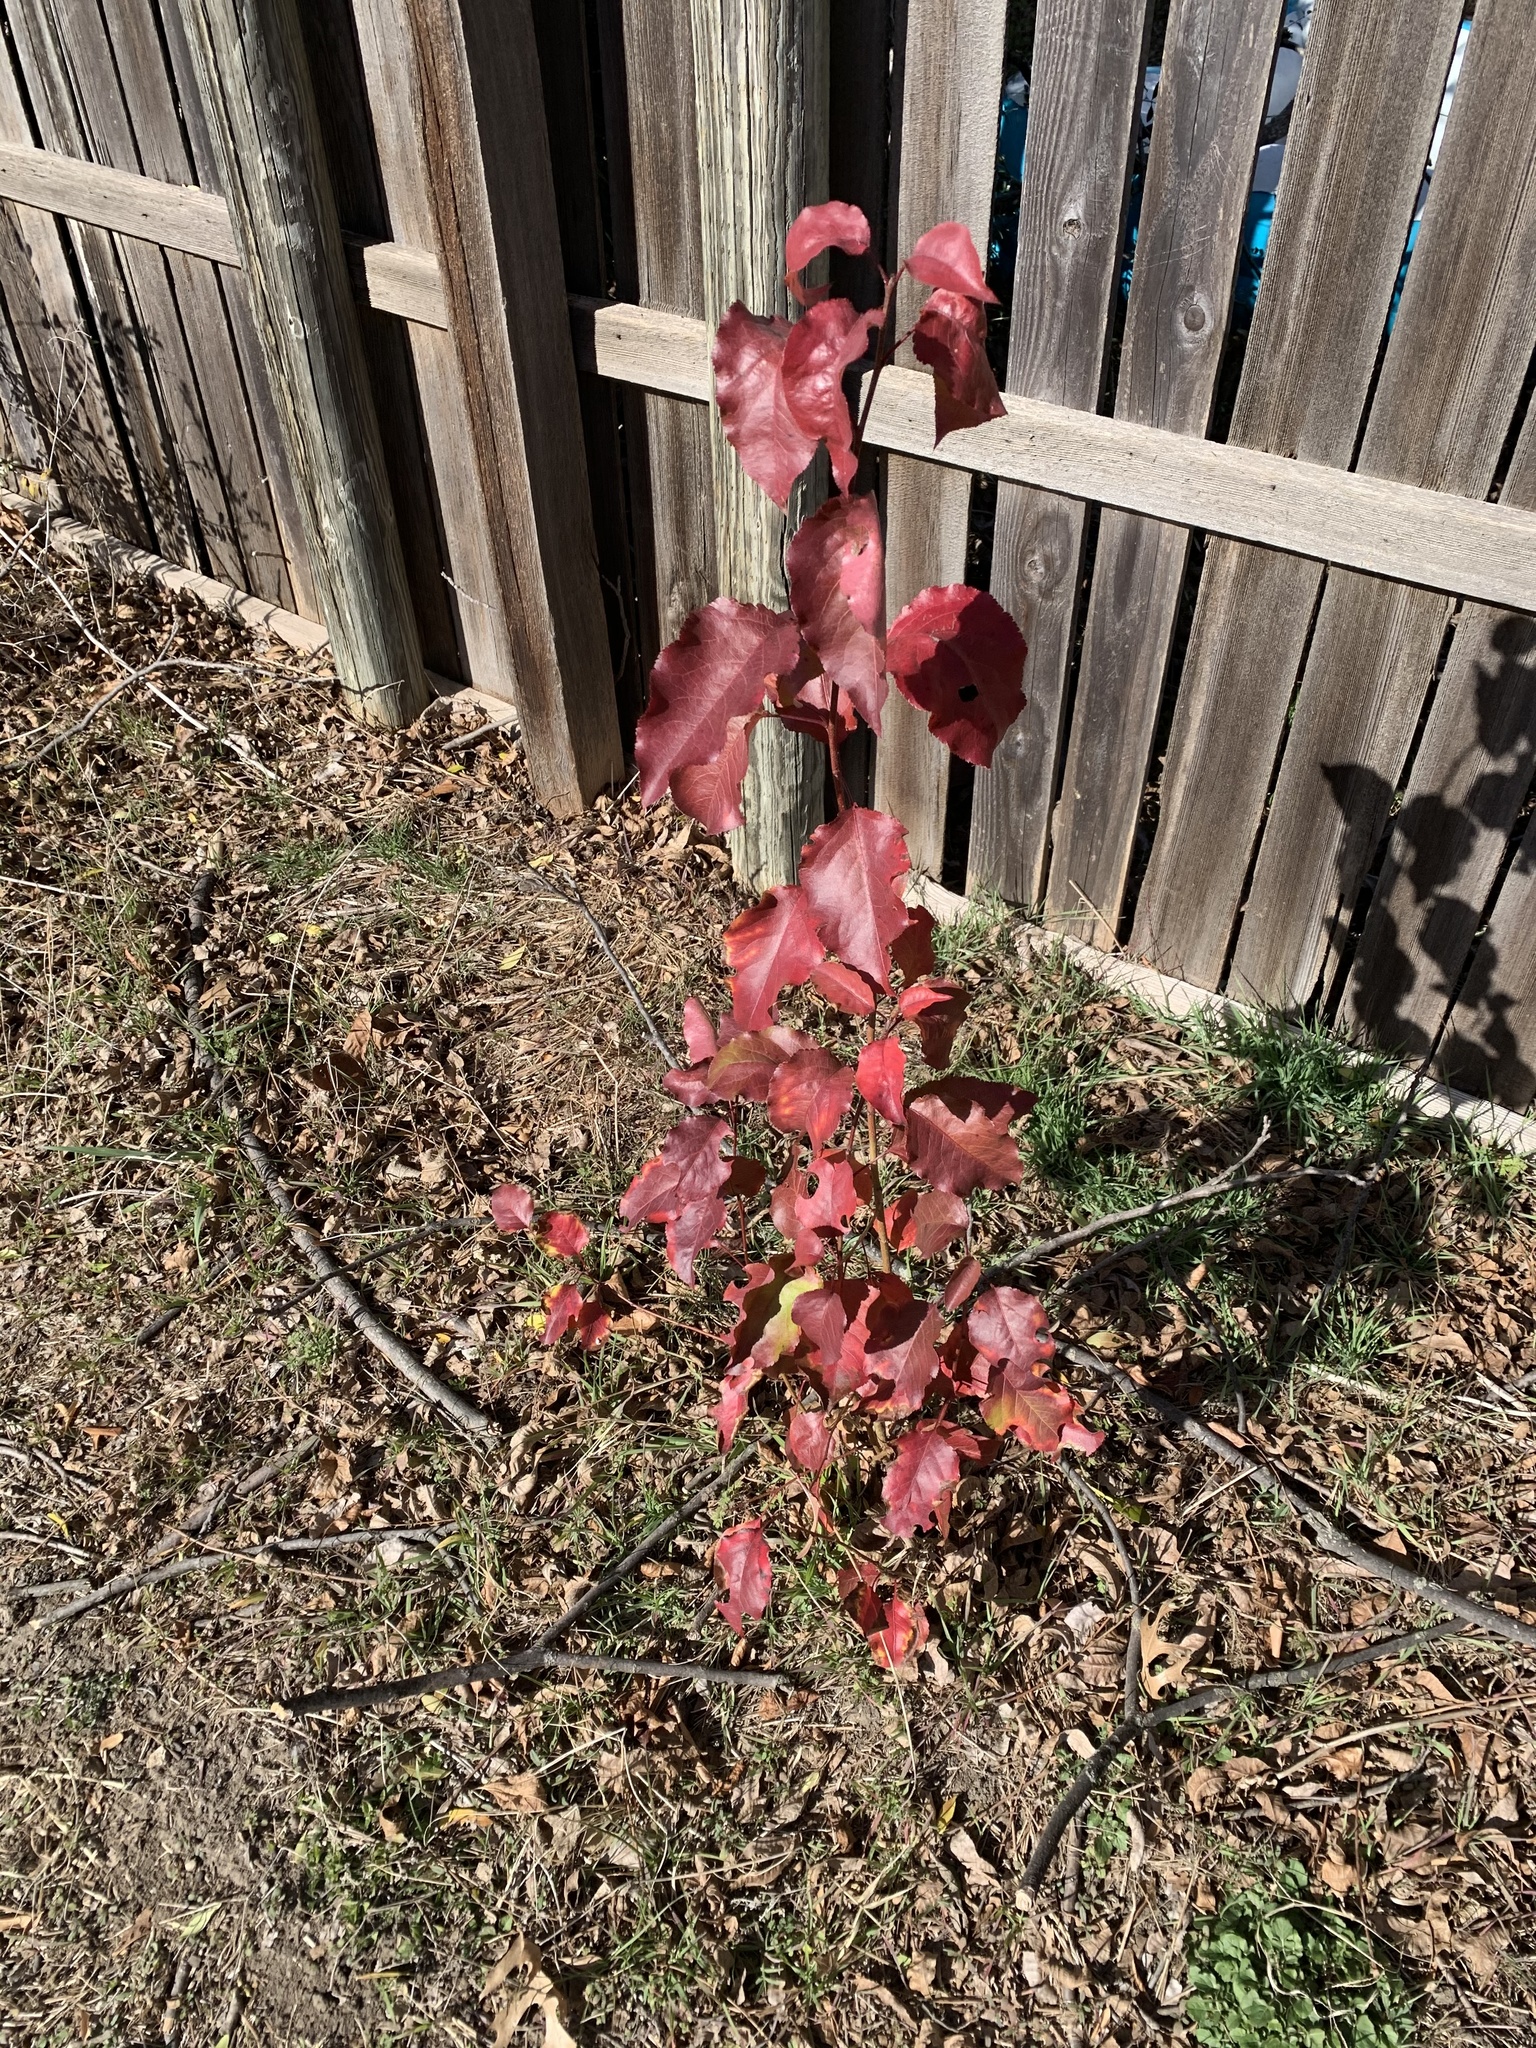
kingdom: Plantae
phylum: Tracheophyta
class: Magnoliopsida
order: Rosales
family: Rosaceae
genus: Pyrus
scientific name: Pyrus calleryana
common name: Callery pear
